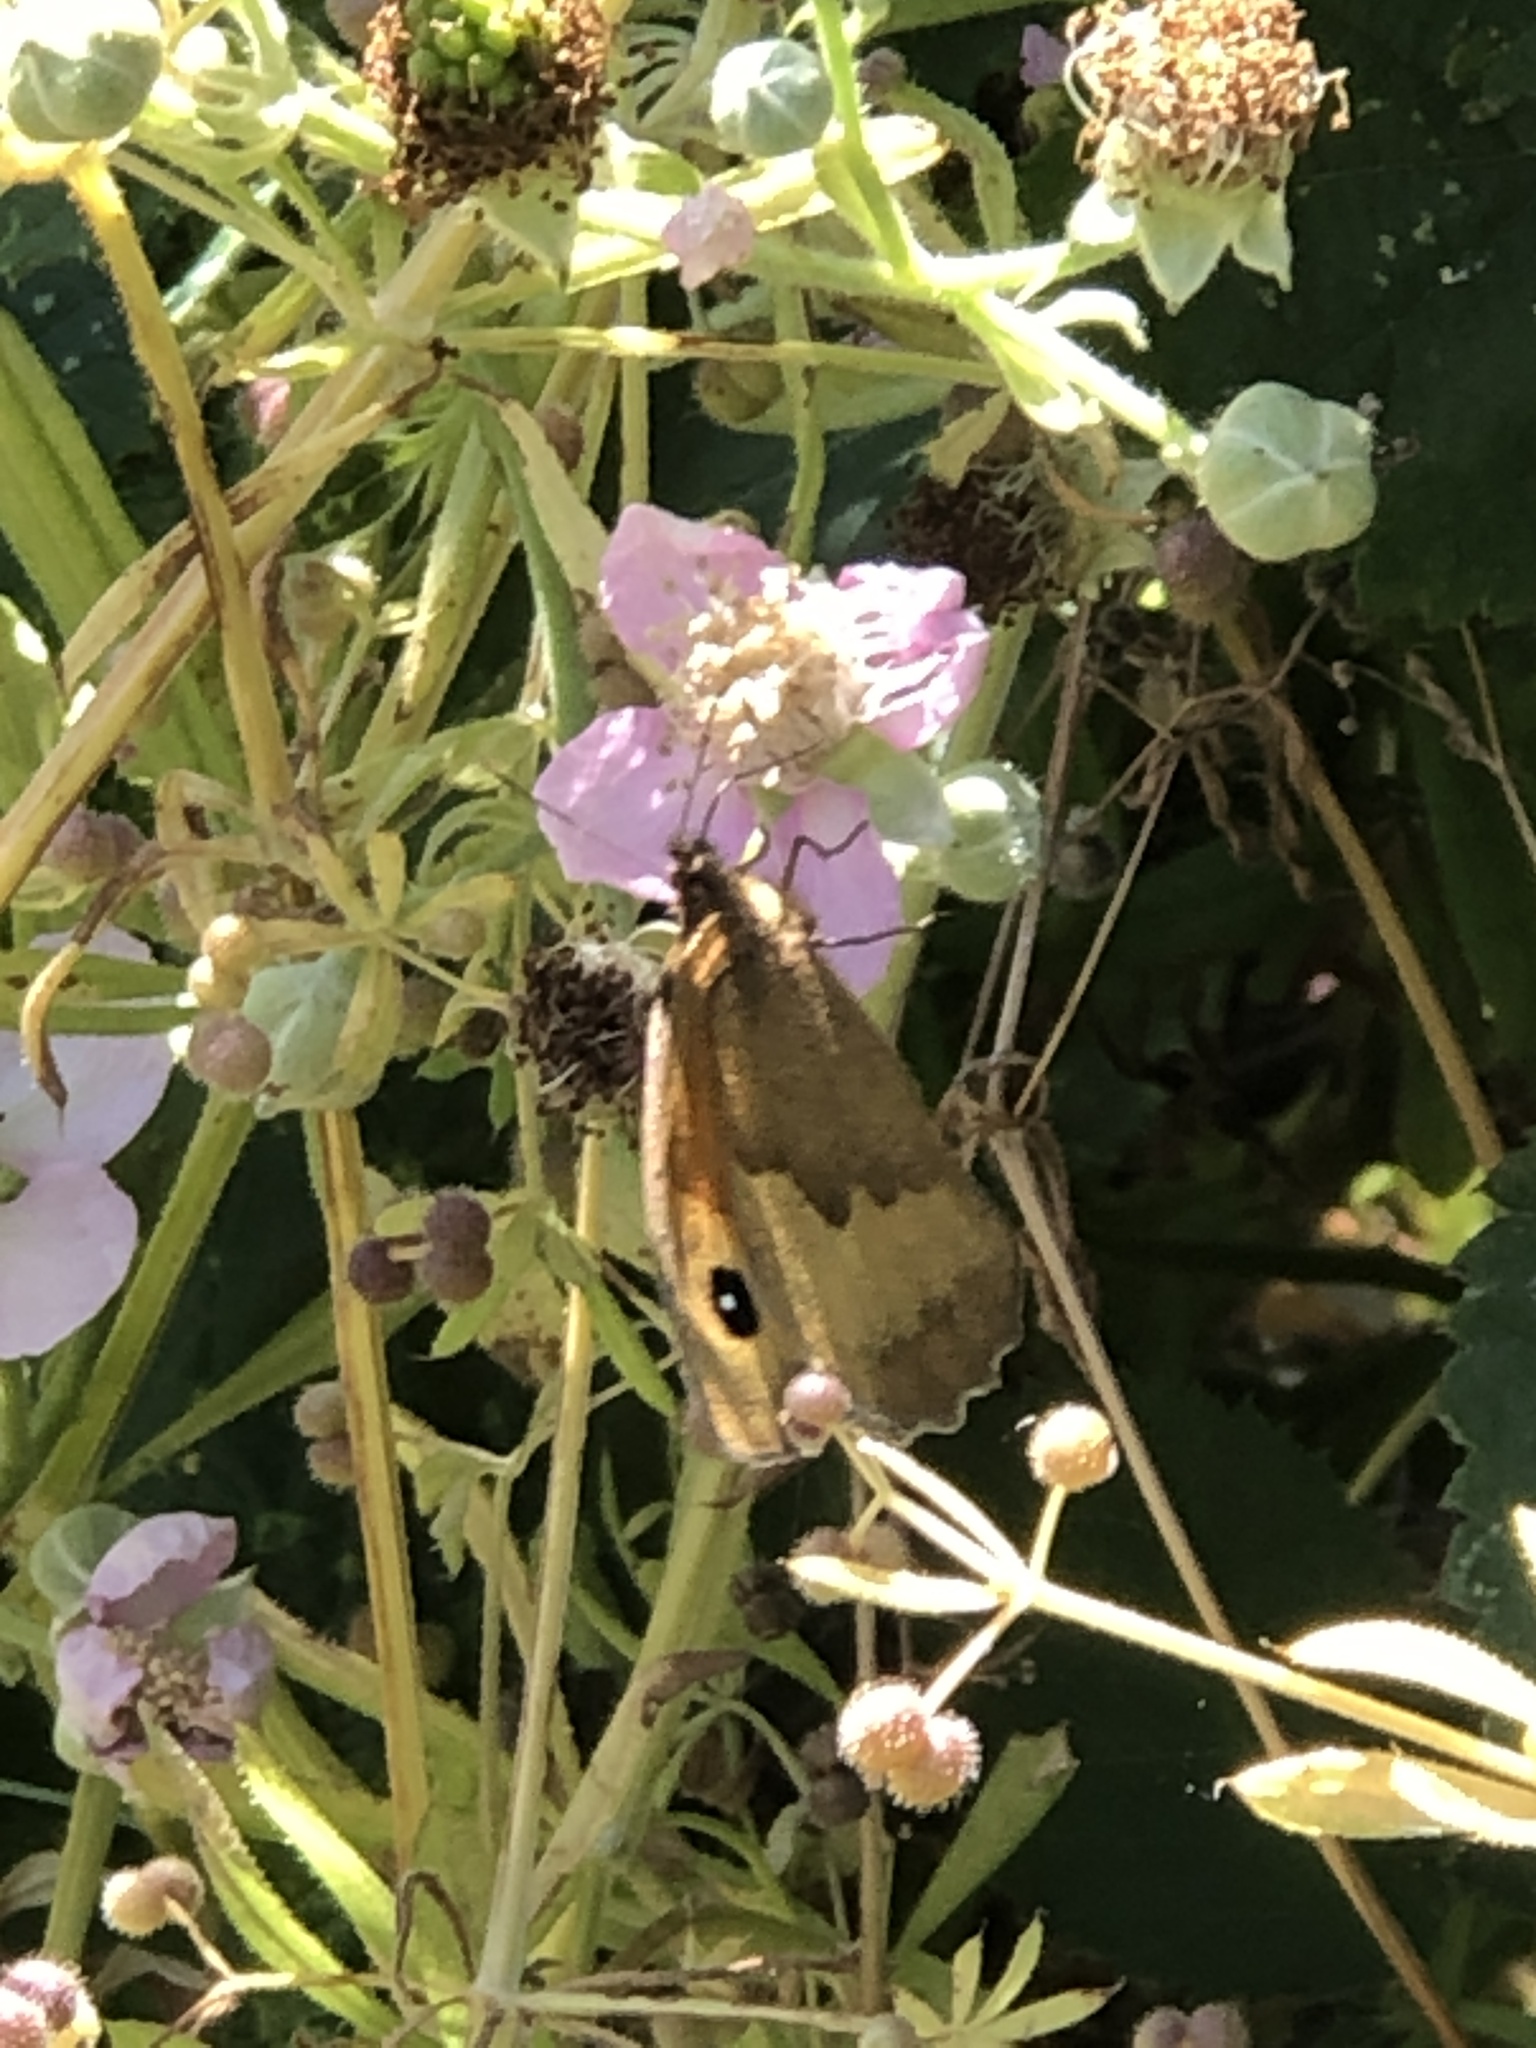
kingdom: Animalia
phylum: Arthropoda
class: Insecta
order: Lepidoptera
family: Nymphalidae
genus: Maniola
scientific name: Maniola jurtina
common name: Meadow brown
